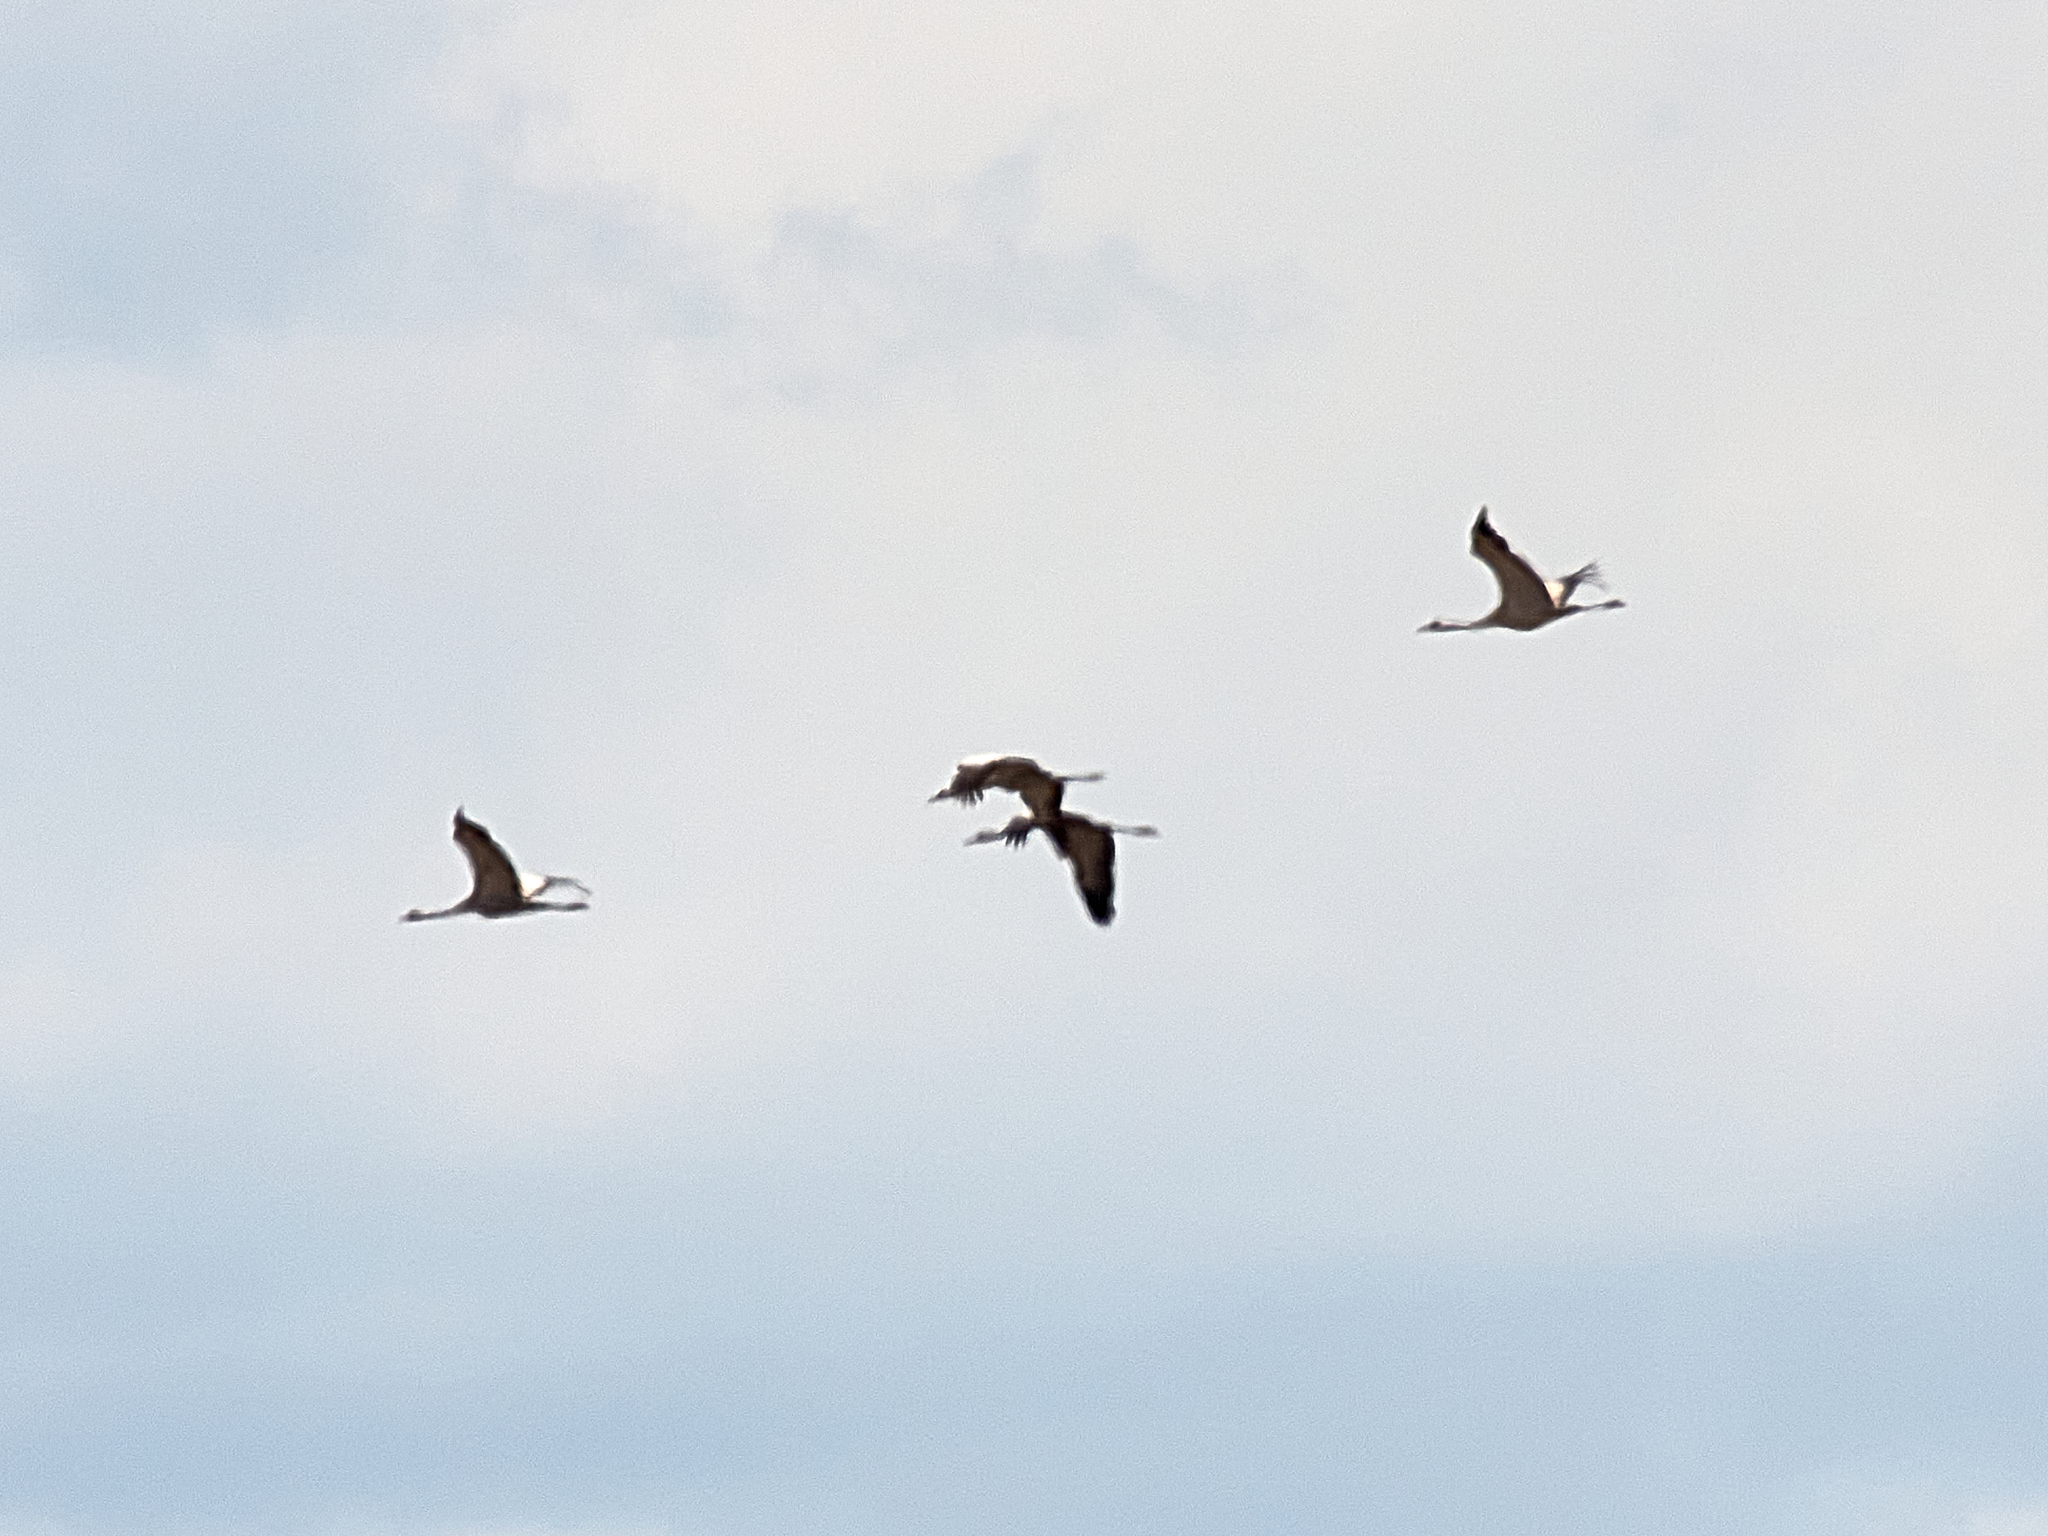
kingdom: Animalia
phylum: Chordata
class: Aves
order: Gruiformes
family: Gruidae
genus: Grus
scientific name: Grus grus
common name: Common crane
